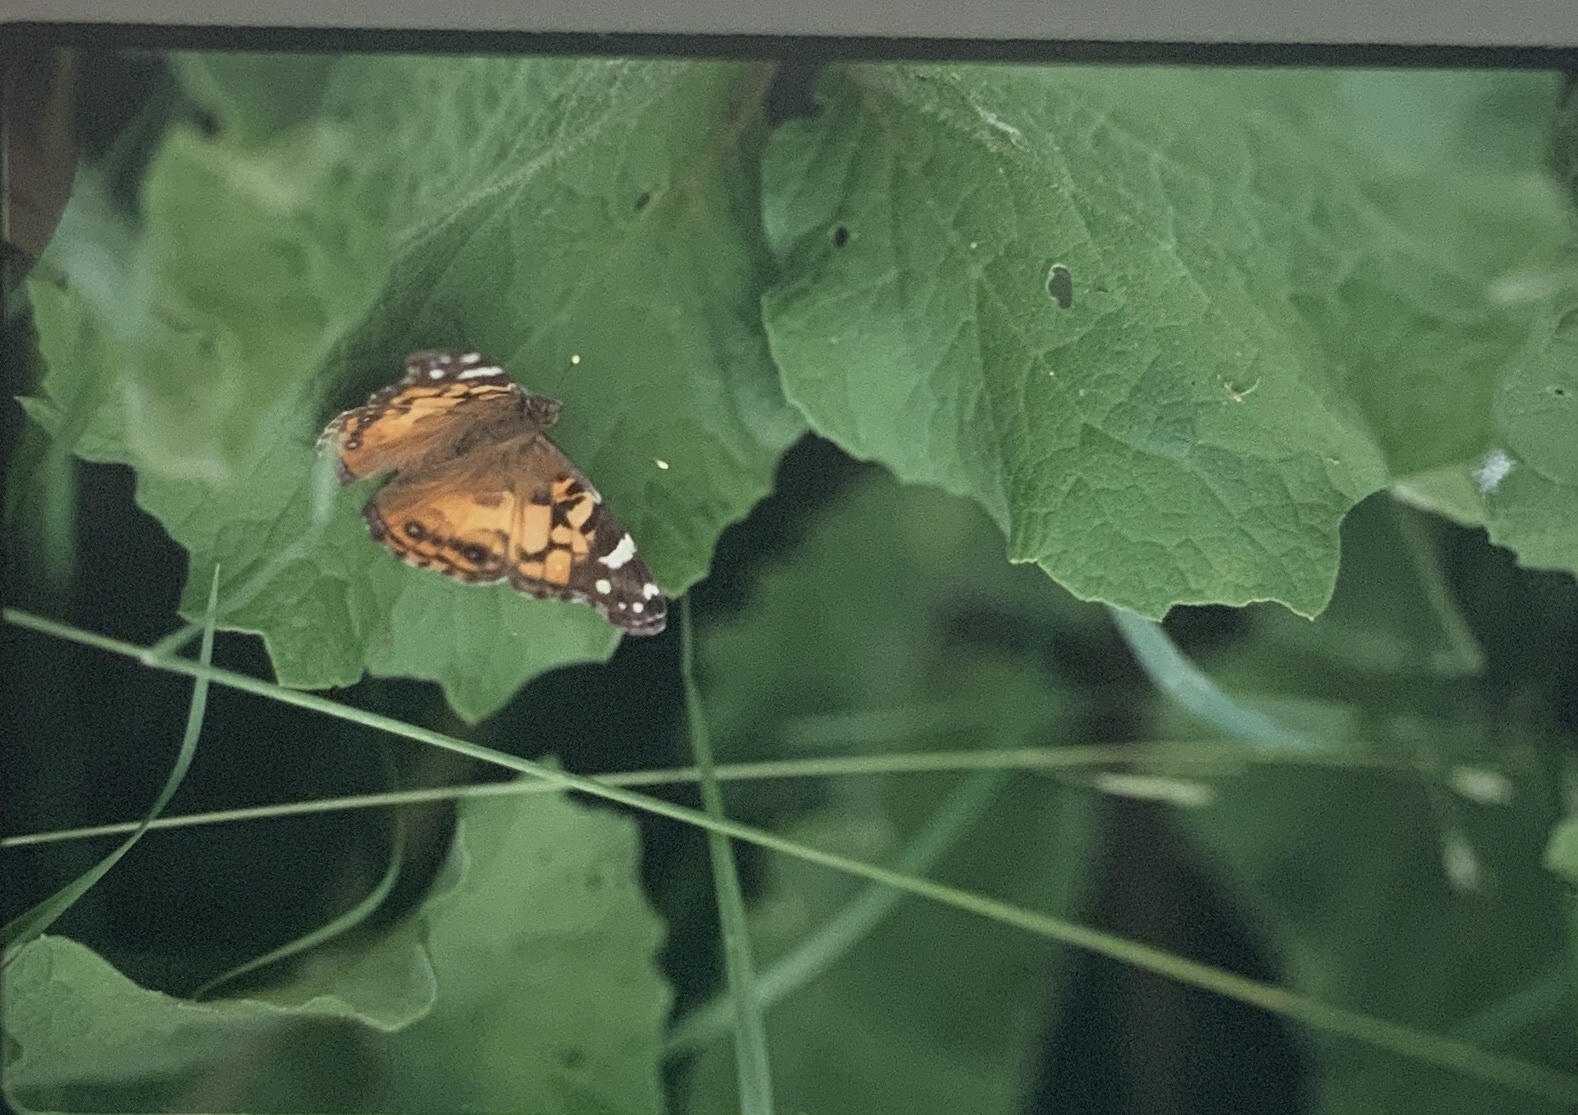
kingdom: Animalia
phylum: Arthropoda
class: Insecta
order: Lepidoptera
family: Nymphalidae
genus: Vanessa
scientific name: Vanessa virginiensis
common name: American lady
